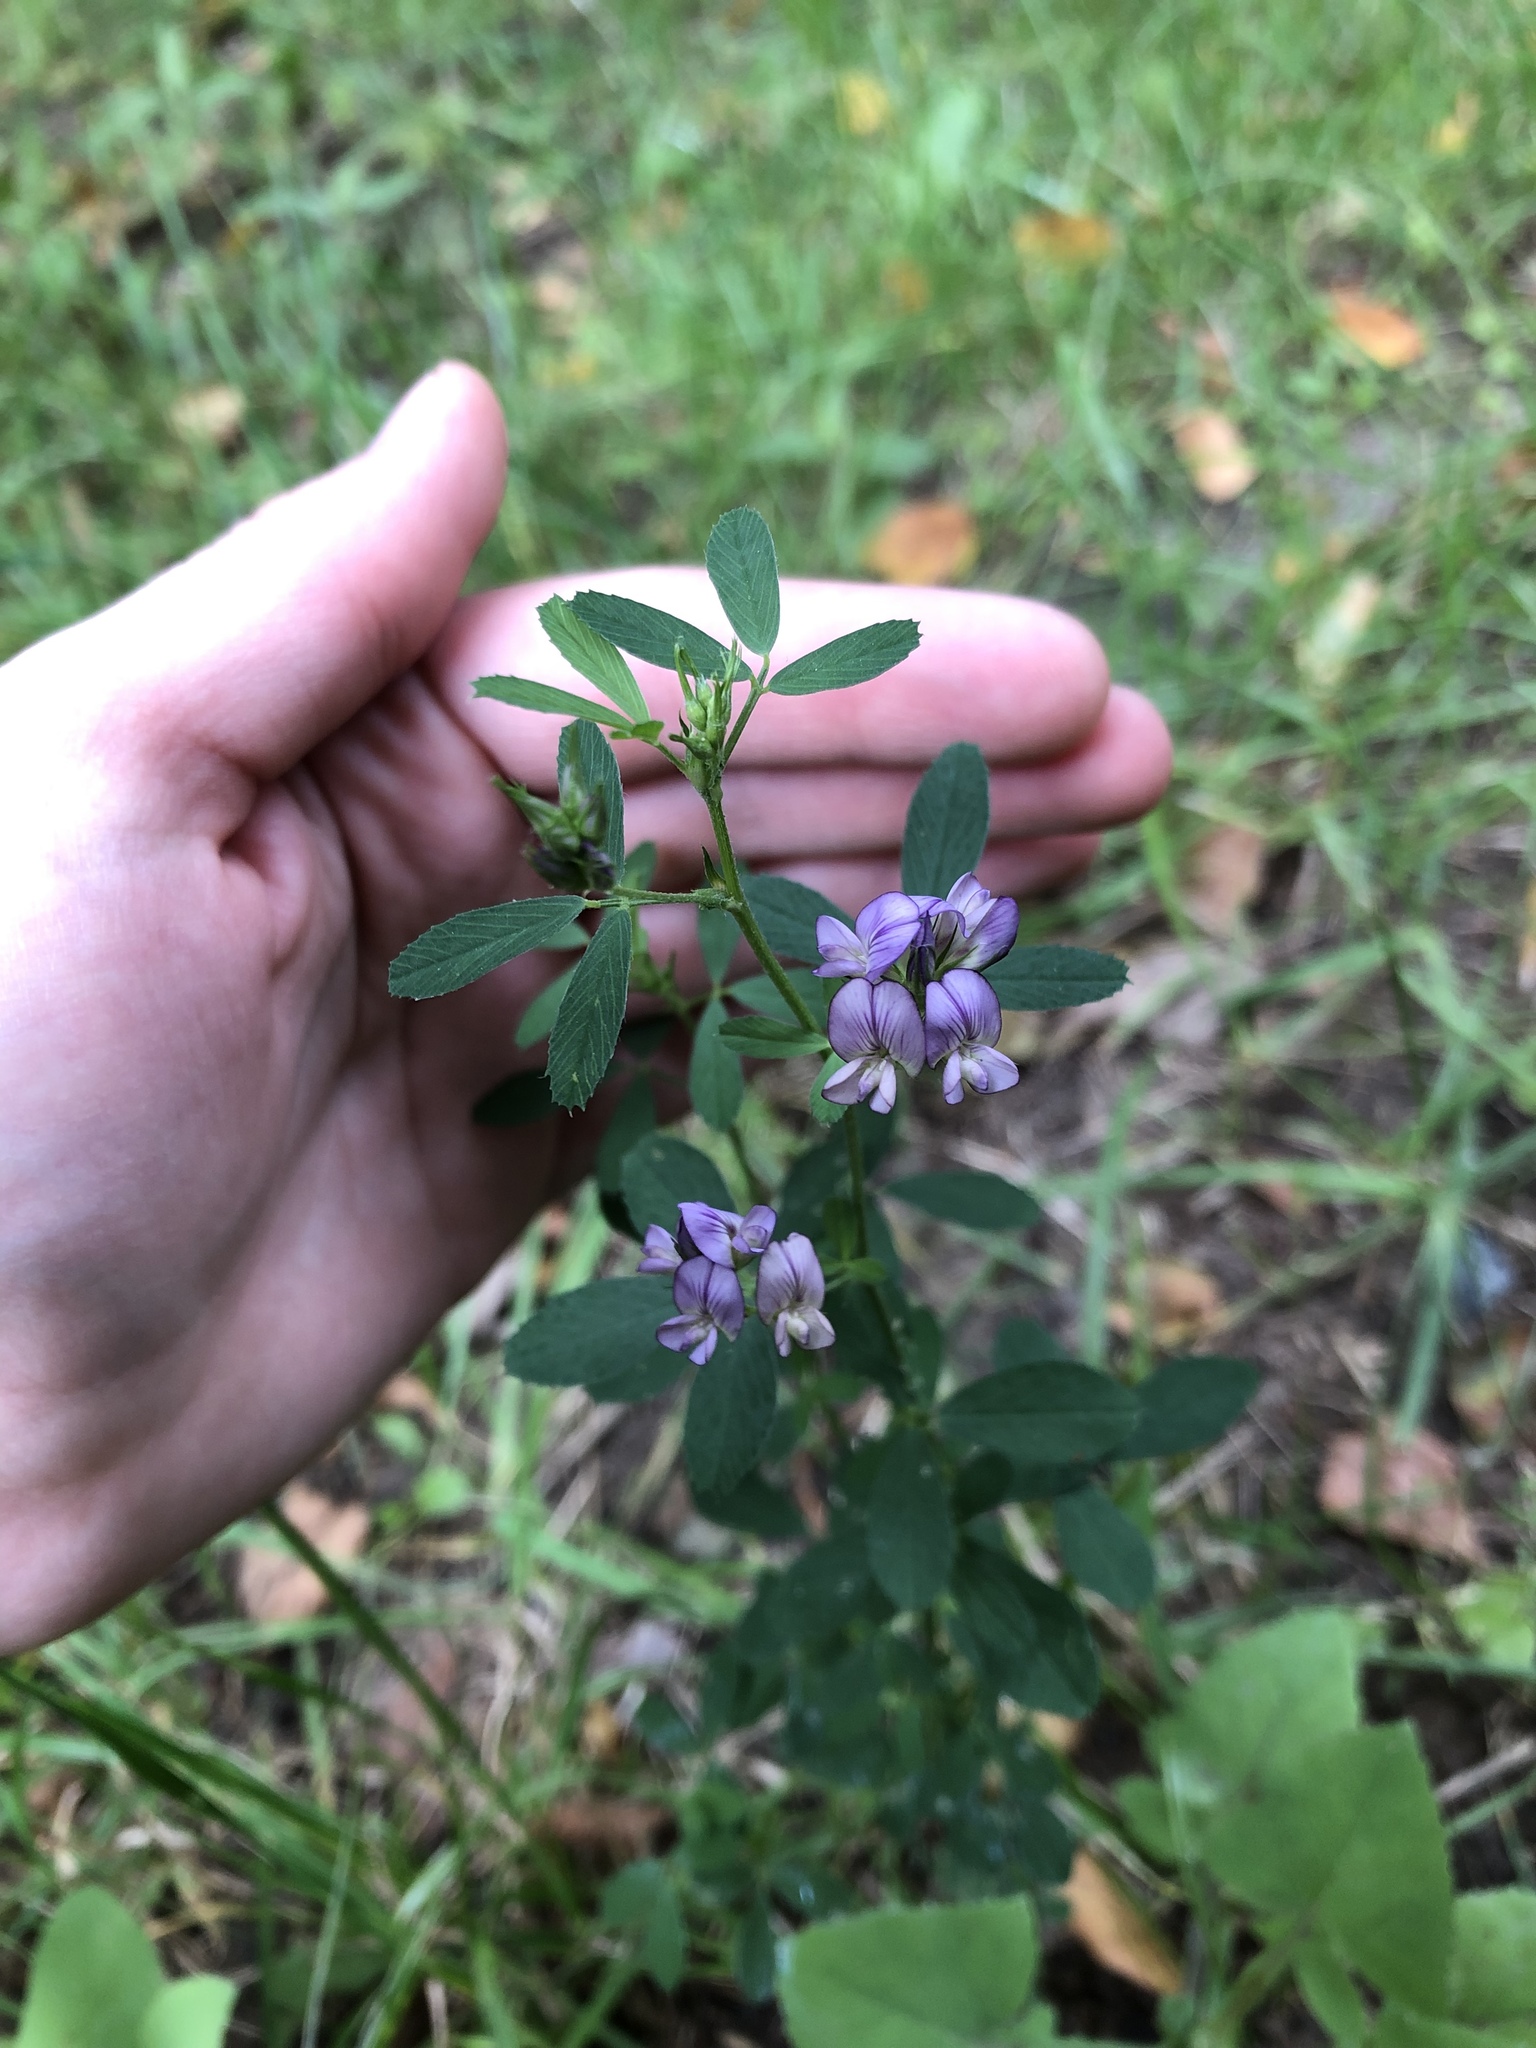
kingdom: Plantae
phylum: Tracheophyta
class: Magnoliopsida
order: Fabales
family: Fabaceae
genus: Medicago
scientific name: Medicago sativa
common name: Alfalfa
